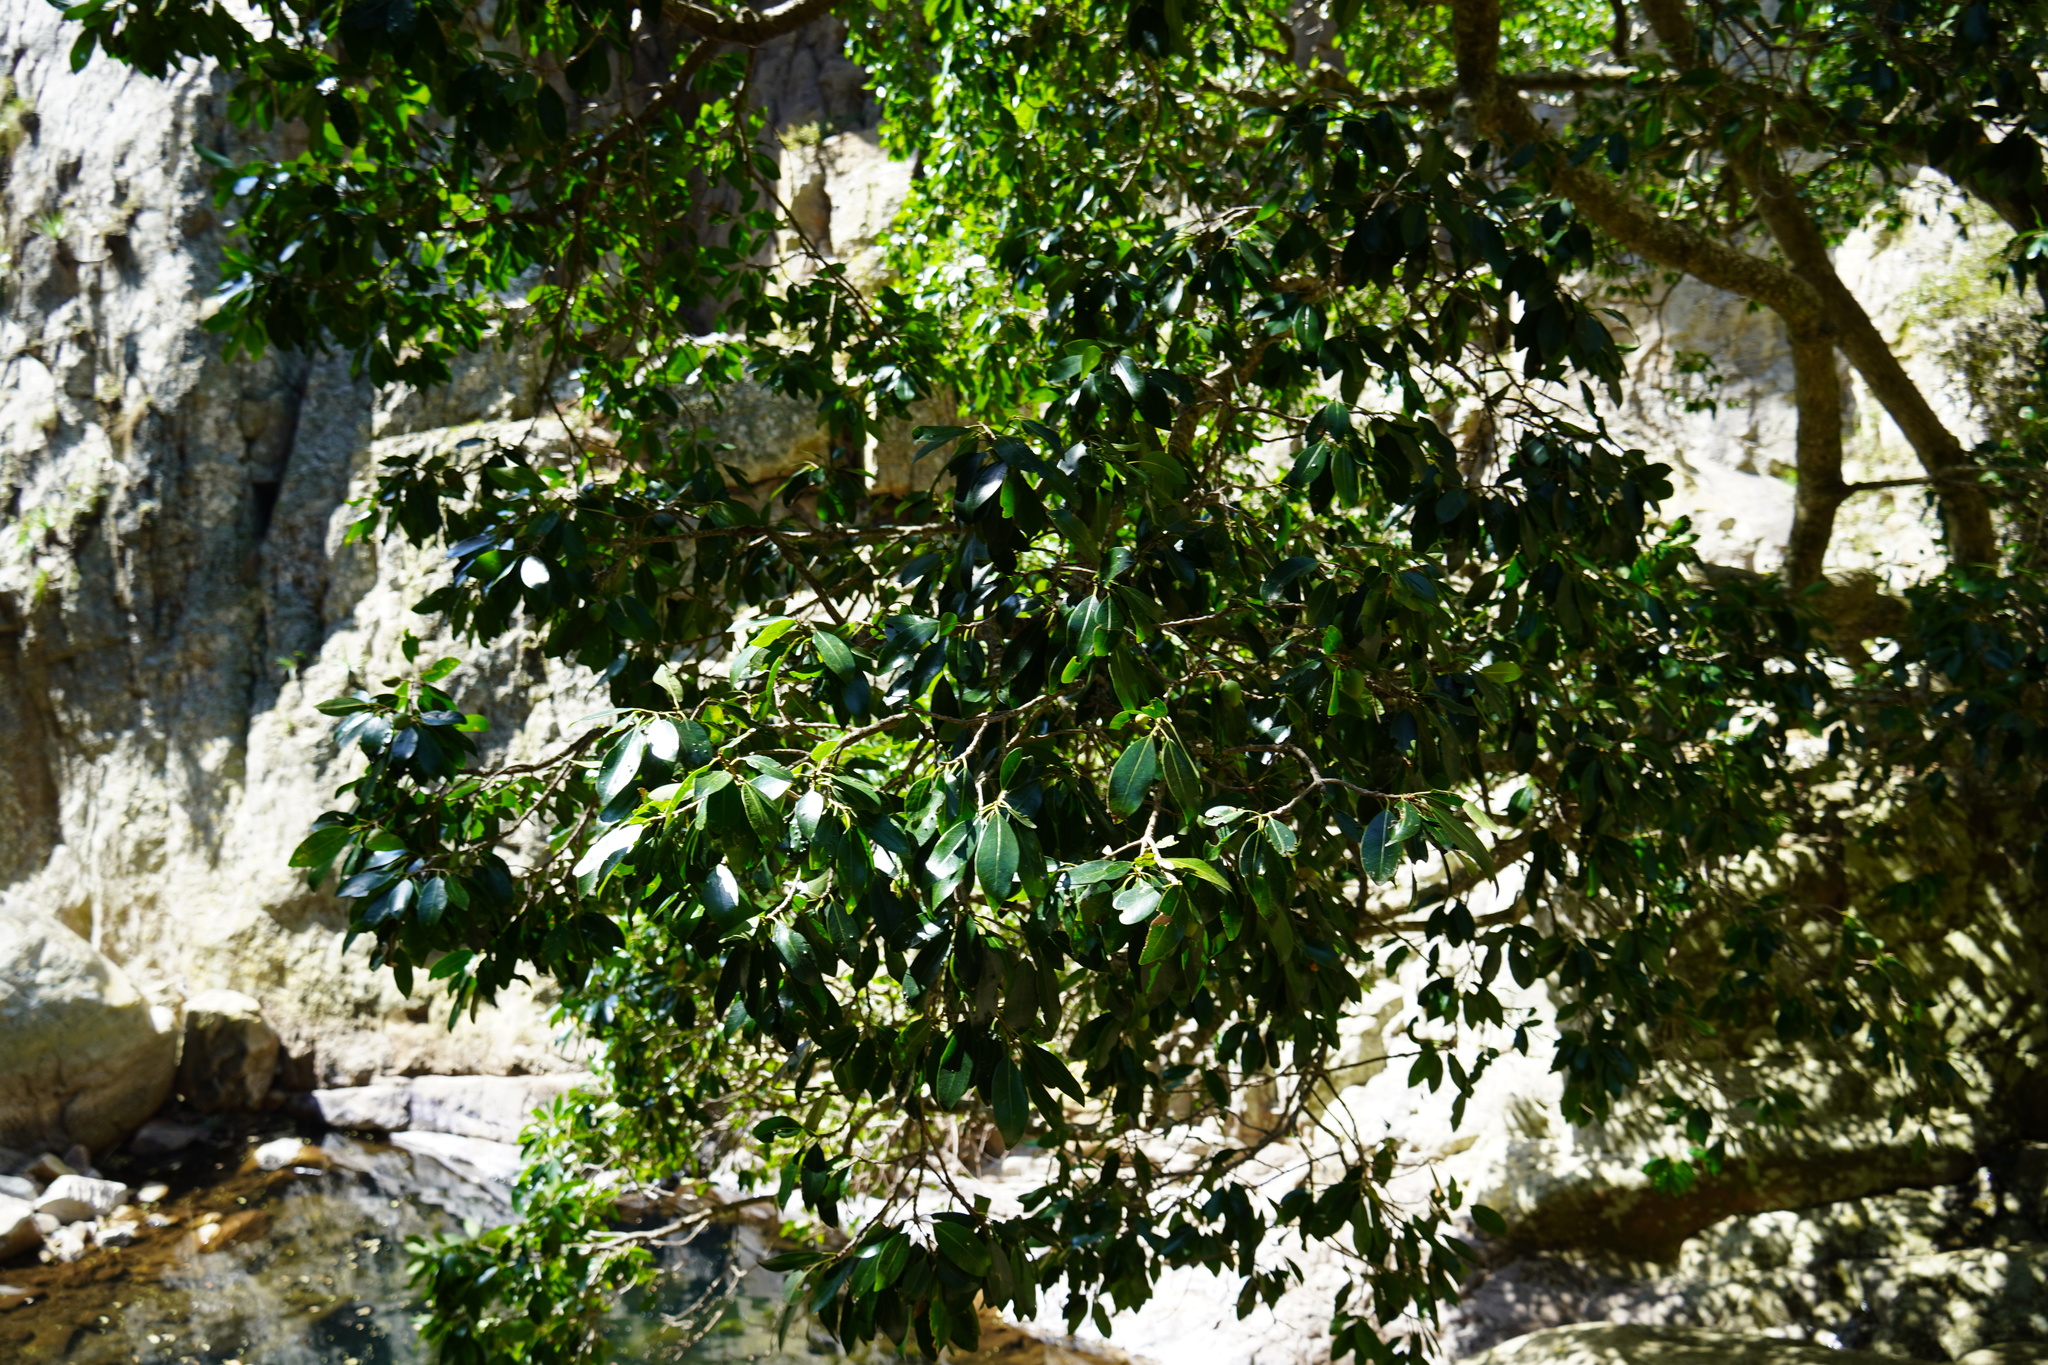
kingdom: Plantae
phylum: Tracheophyta
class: Magnoliopsida
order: Ericales
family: Sapotaceae
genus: Mimusops
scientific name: Mimusops zeyheri
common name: Transvaal red milkwood
